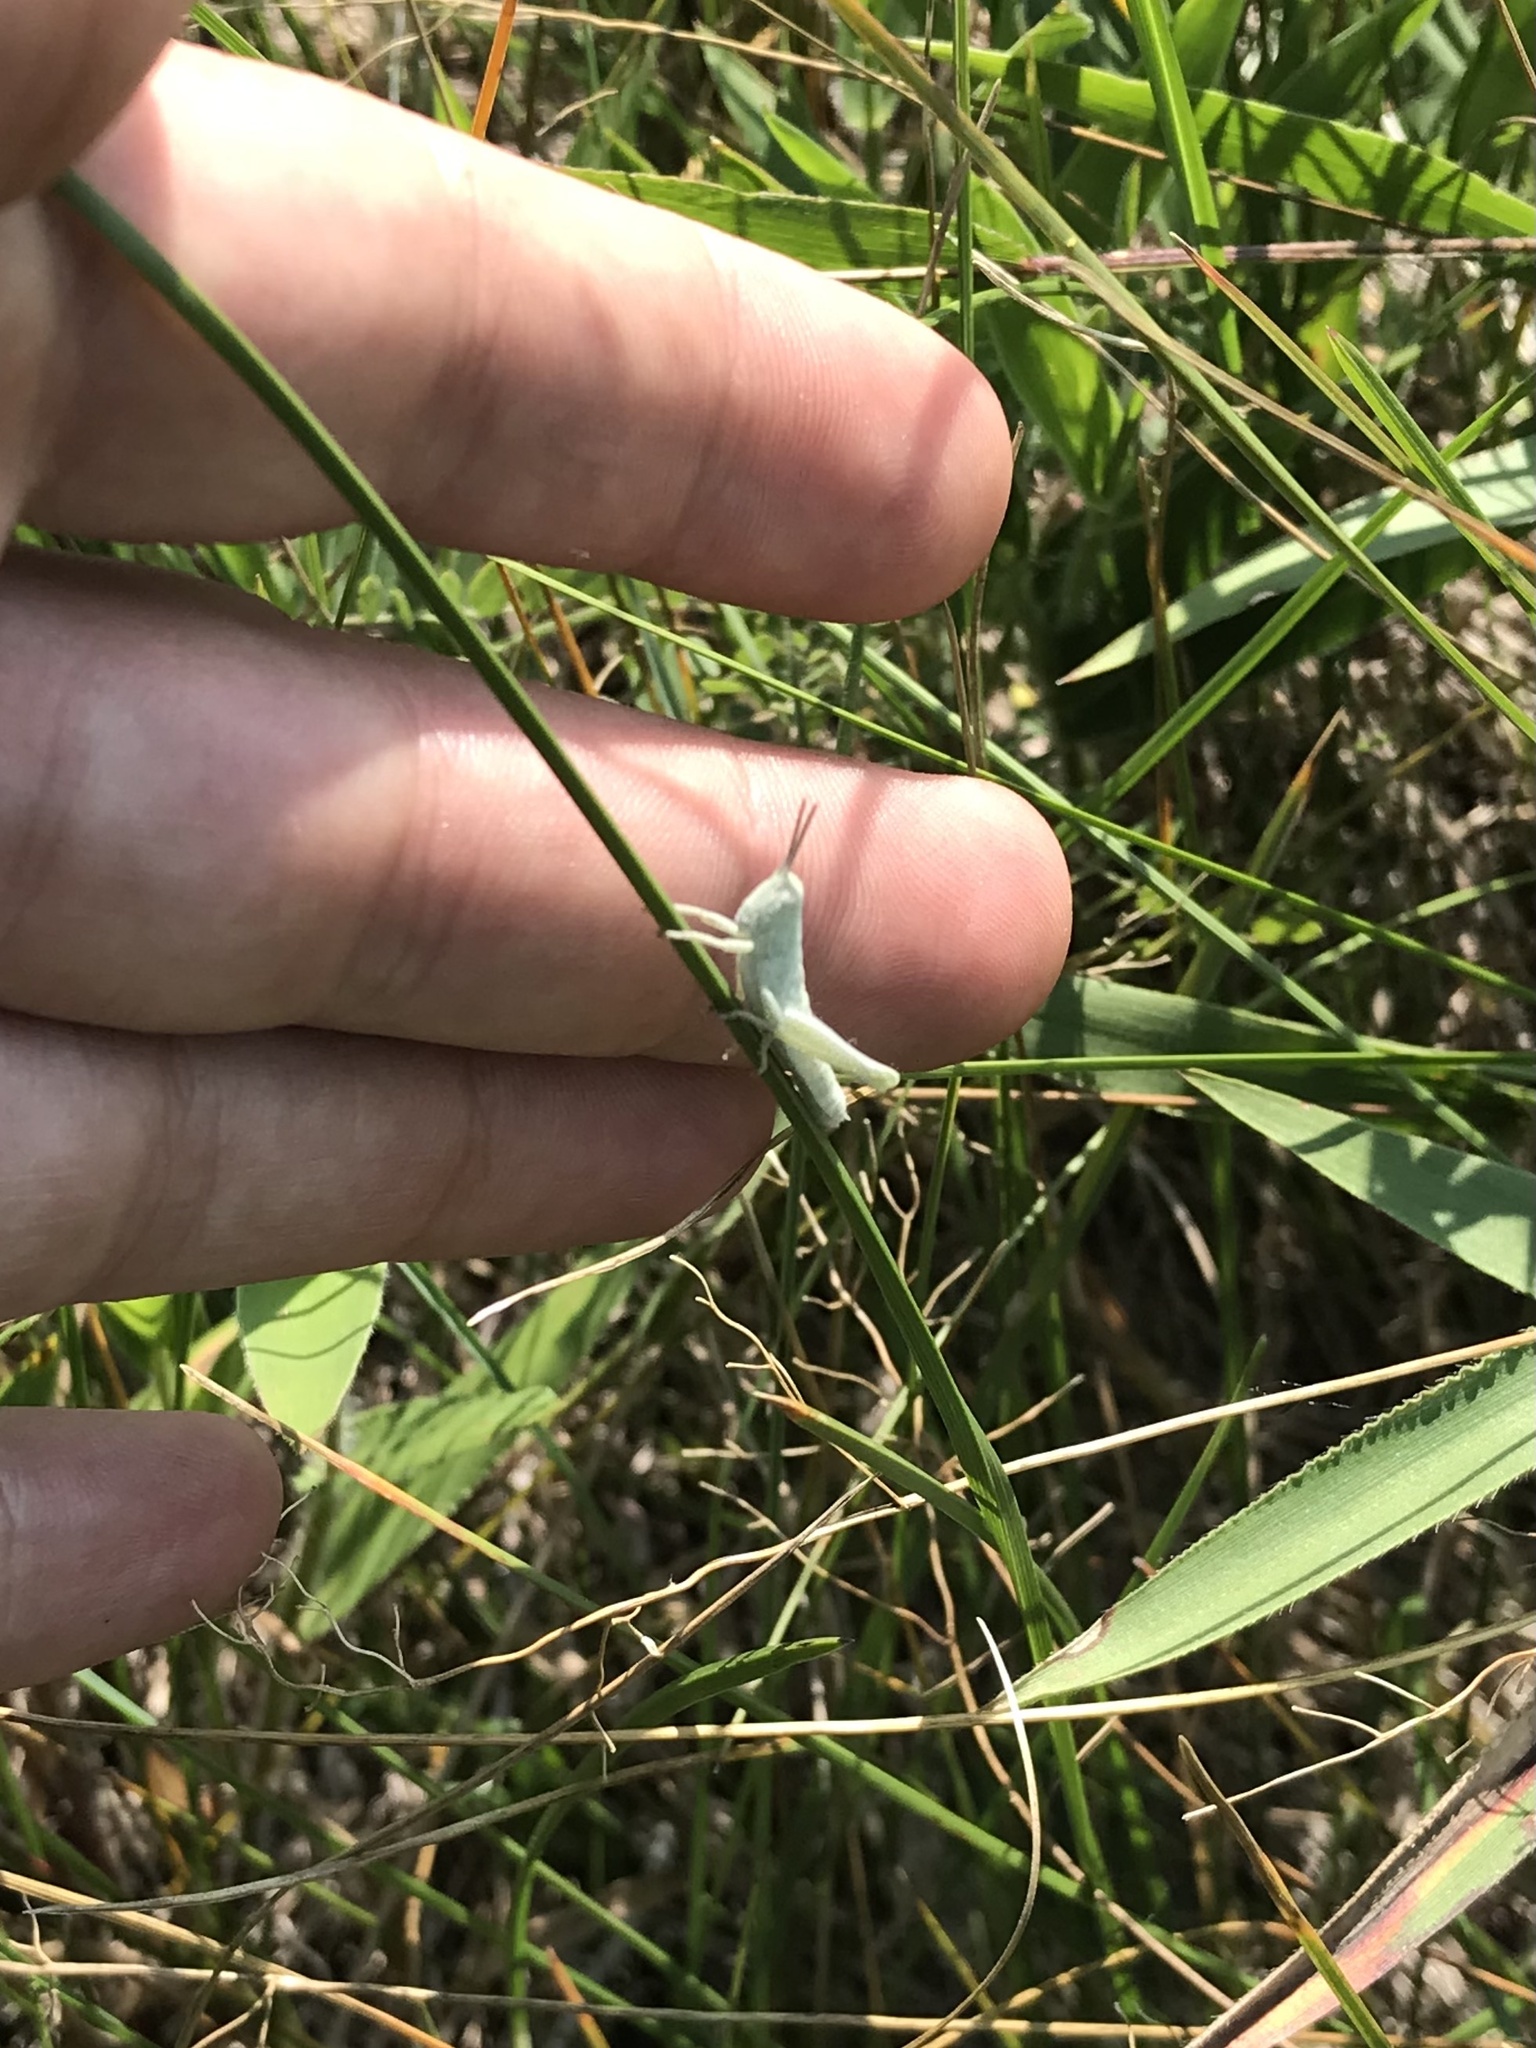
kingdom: Animalia
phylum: Arthropoda
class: Insecta
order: Orthoptera
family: Acrididae
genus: Hypochlora
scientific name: Hypochlora alba
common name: Cudweed grasshopper
